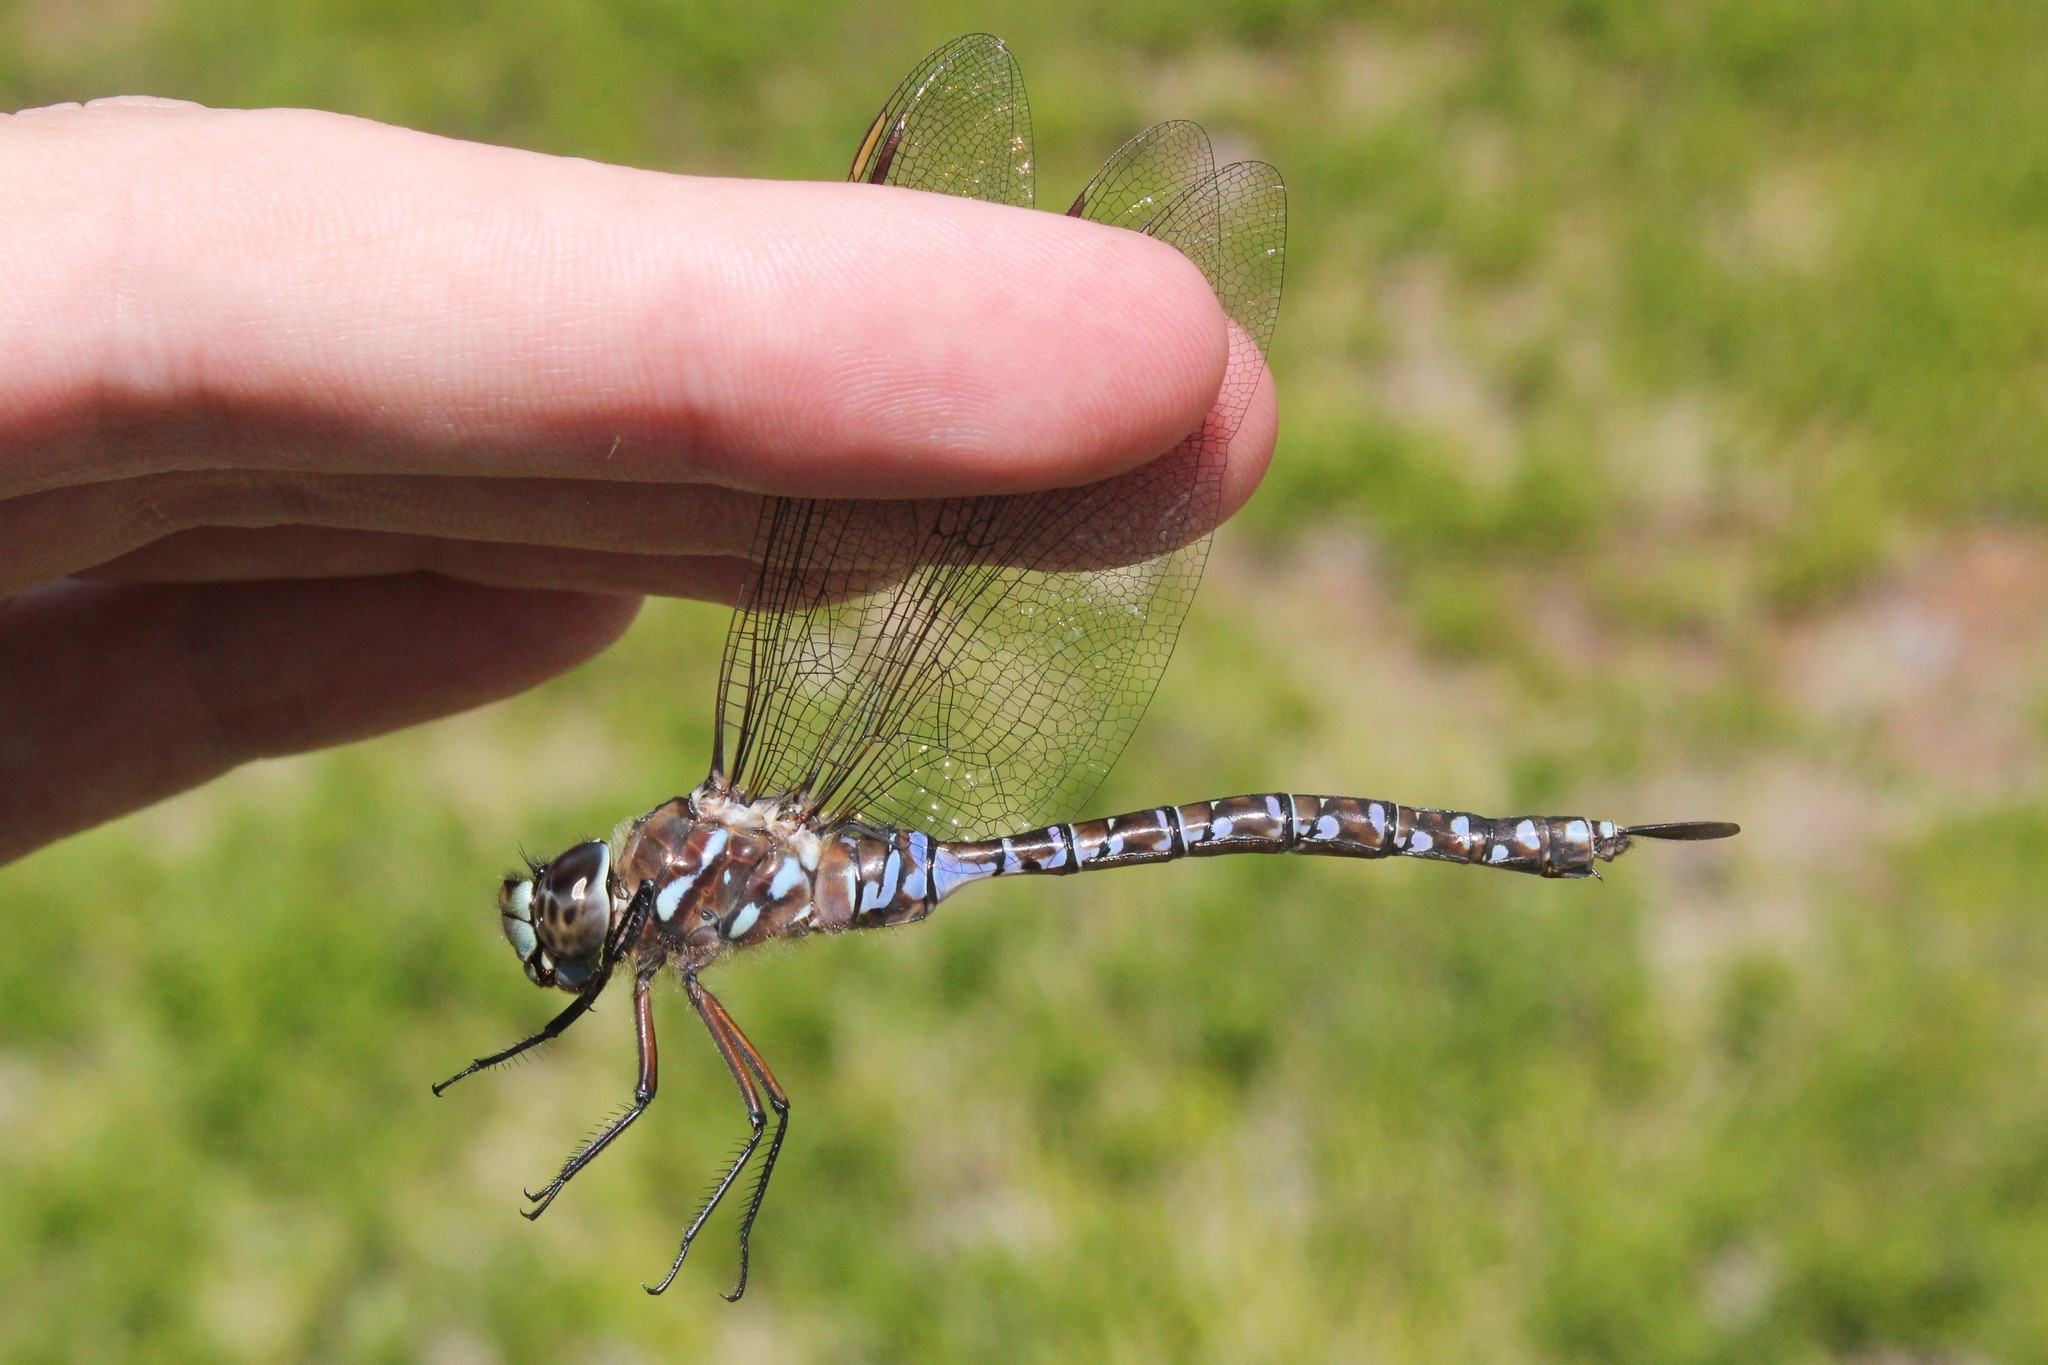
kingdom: Animalia
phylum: Arthropoda
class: Insecta
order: Odonata
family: Aeshnidae
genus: Aeshna
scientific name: Aeshna interrupta
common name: Variable darner
